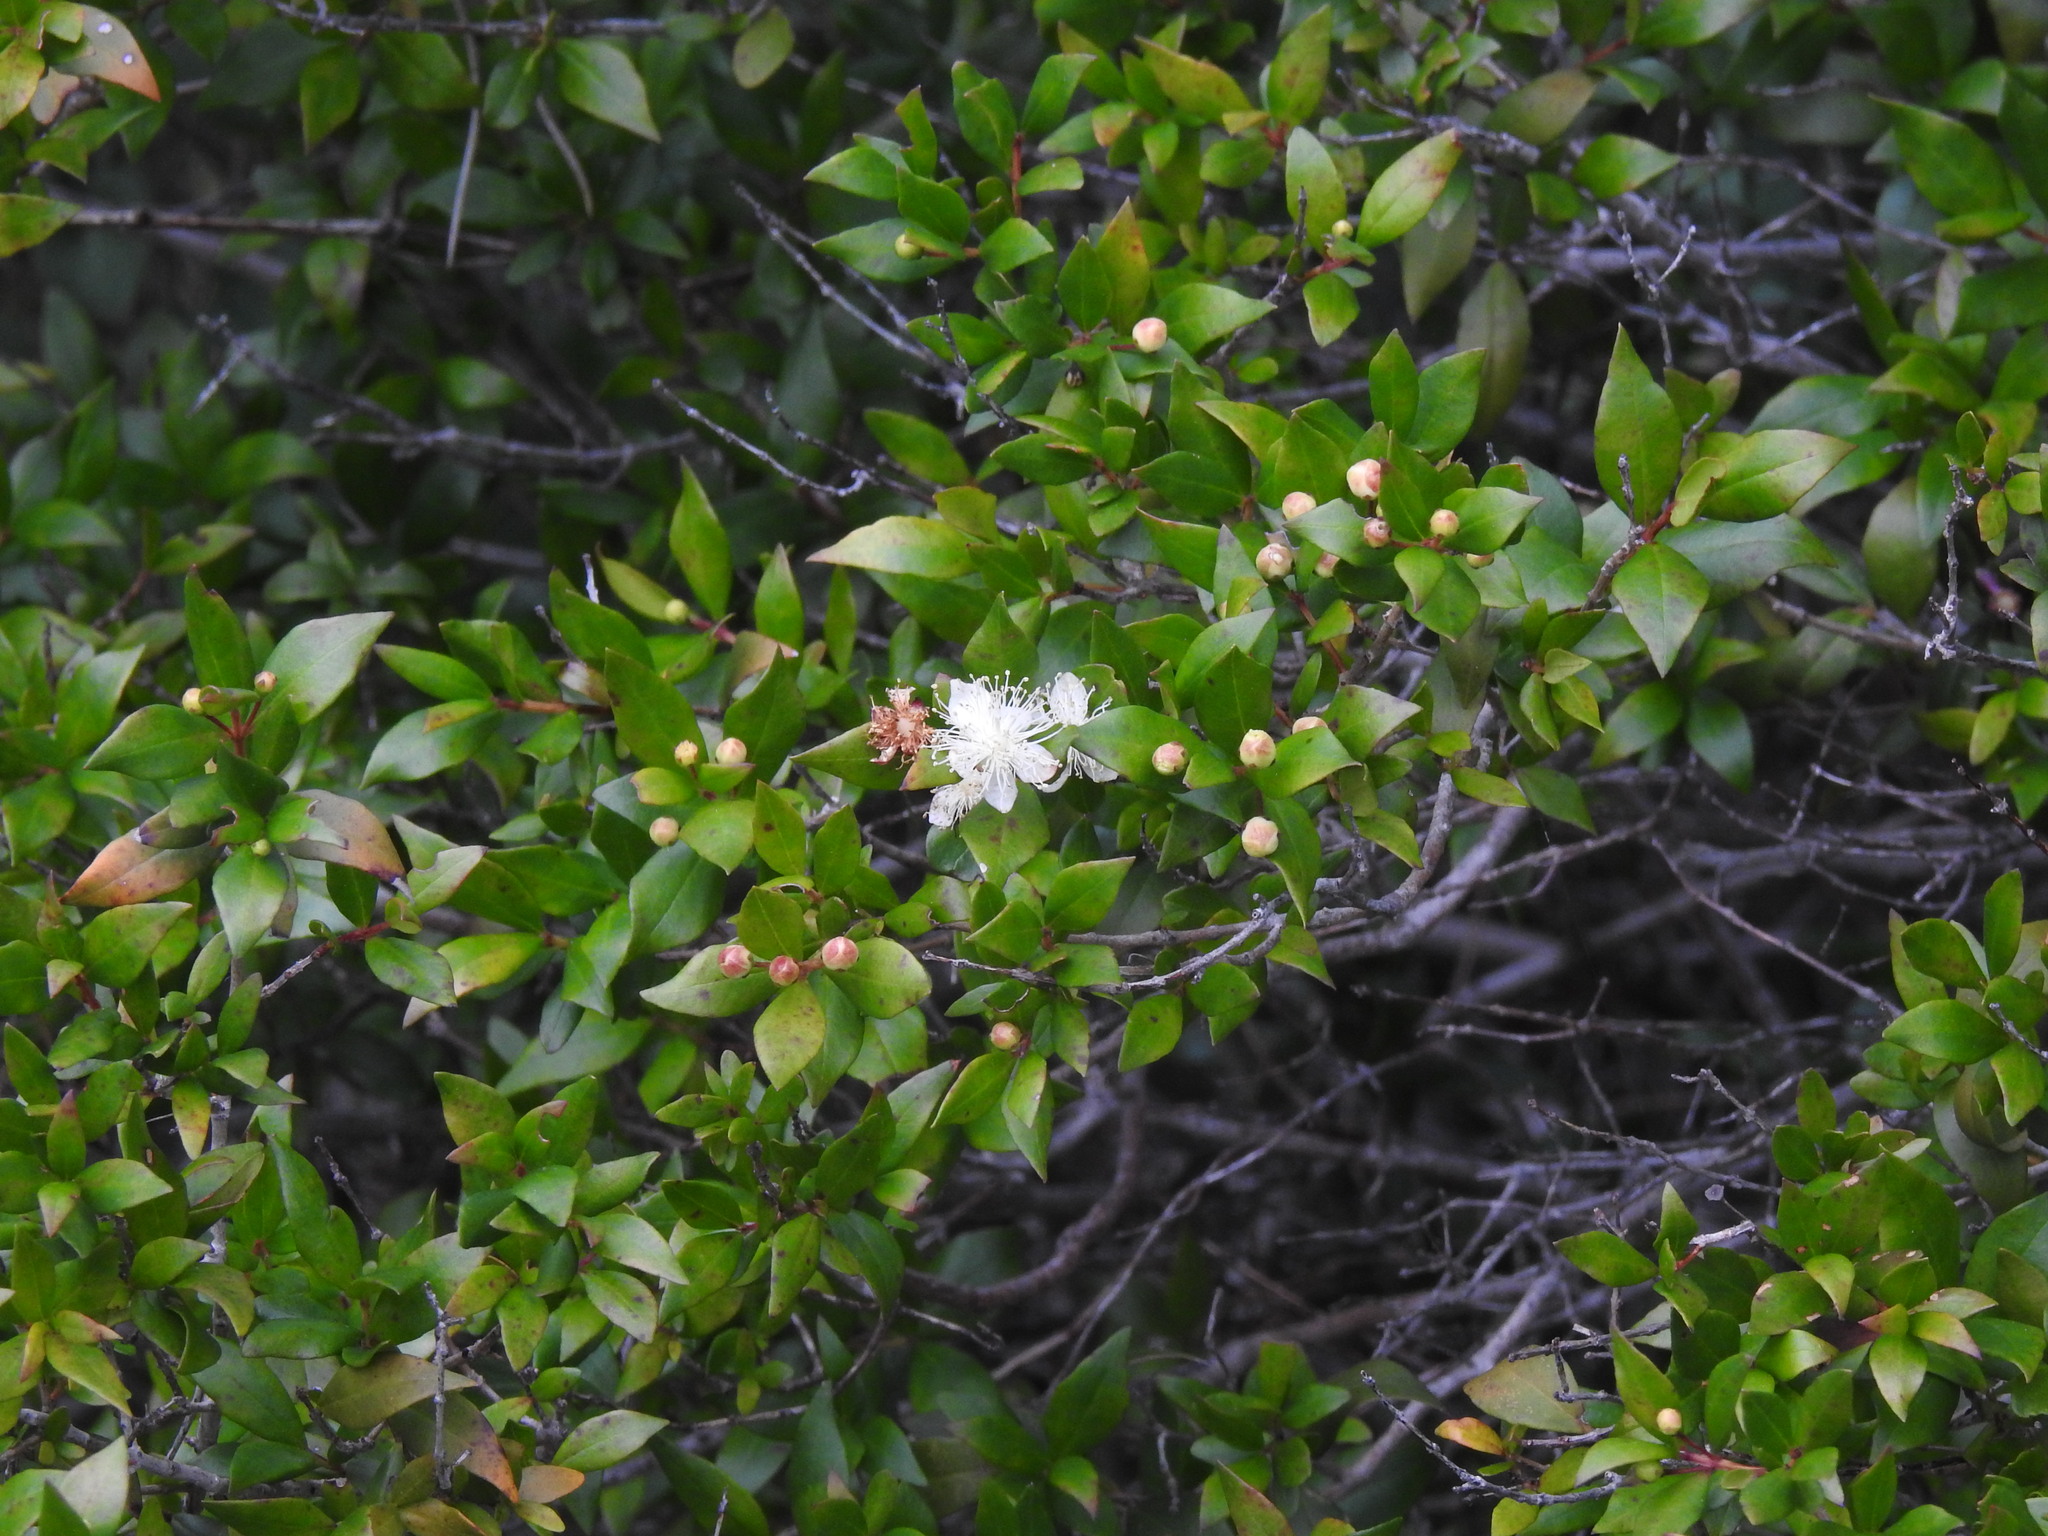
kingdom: Plantae
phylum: Tracheophyta
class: Magnoliopsida
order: Myrtales
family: Myrtaceae
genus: Myrtus
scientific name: Myrtus communis
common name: Myrtle
